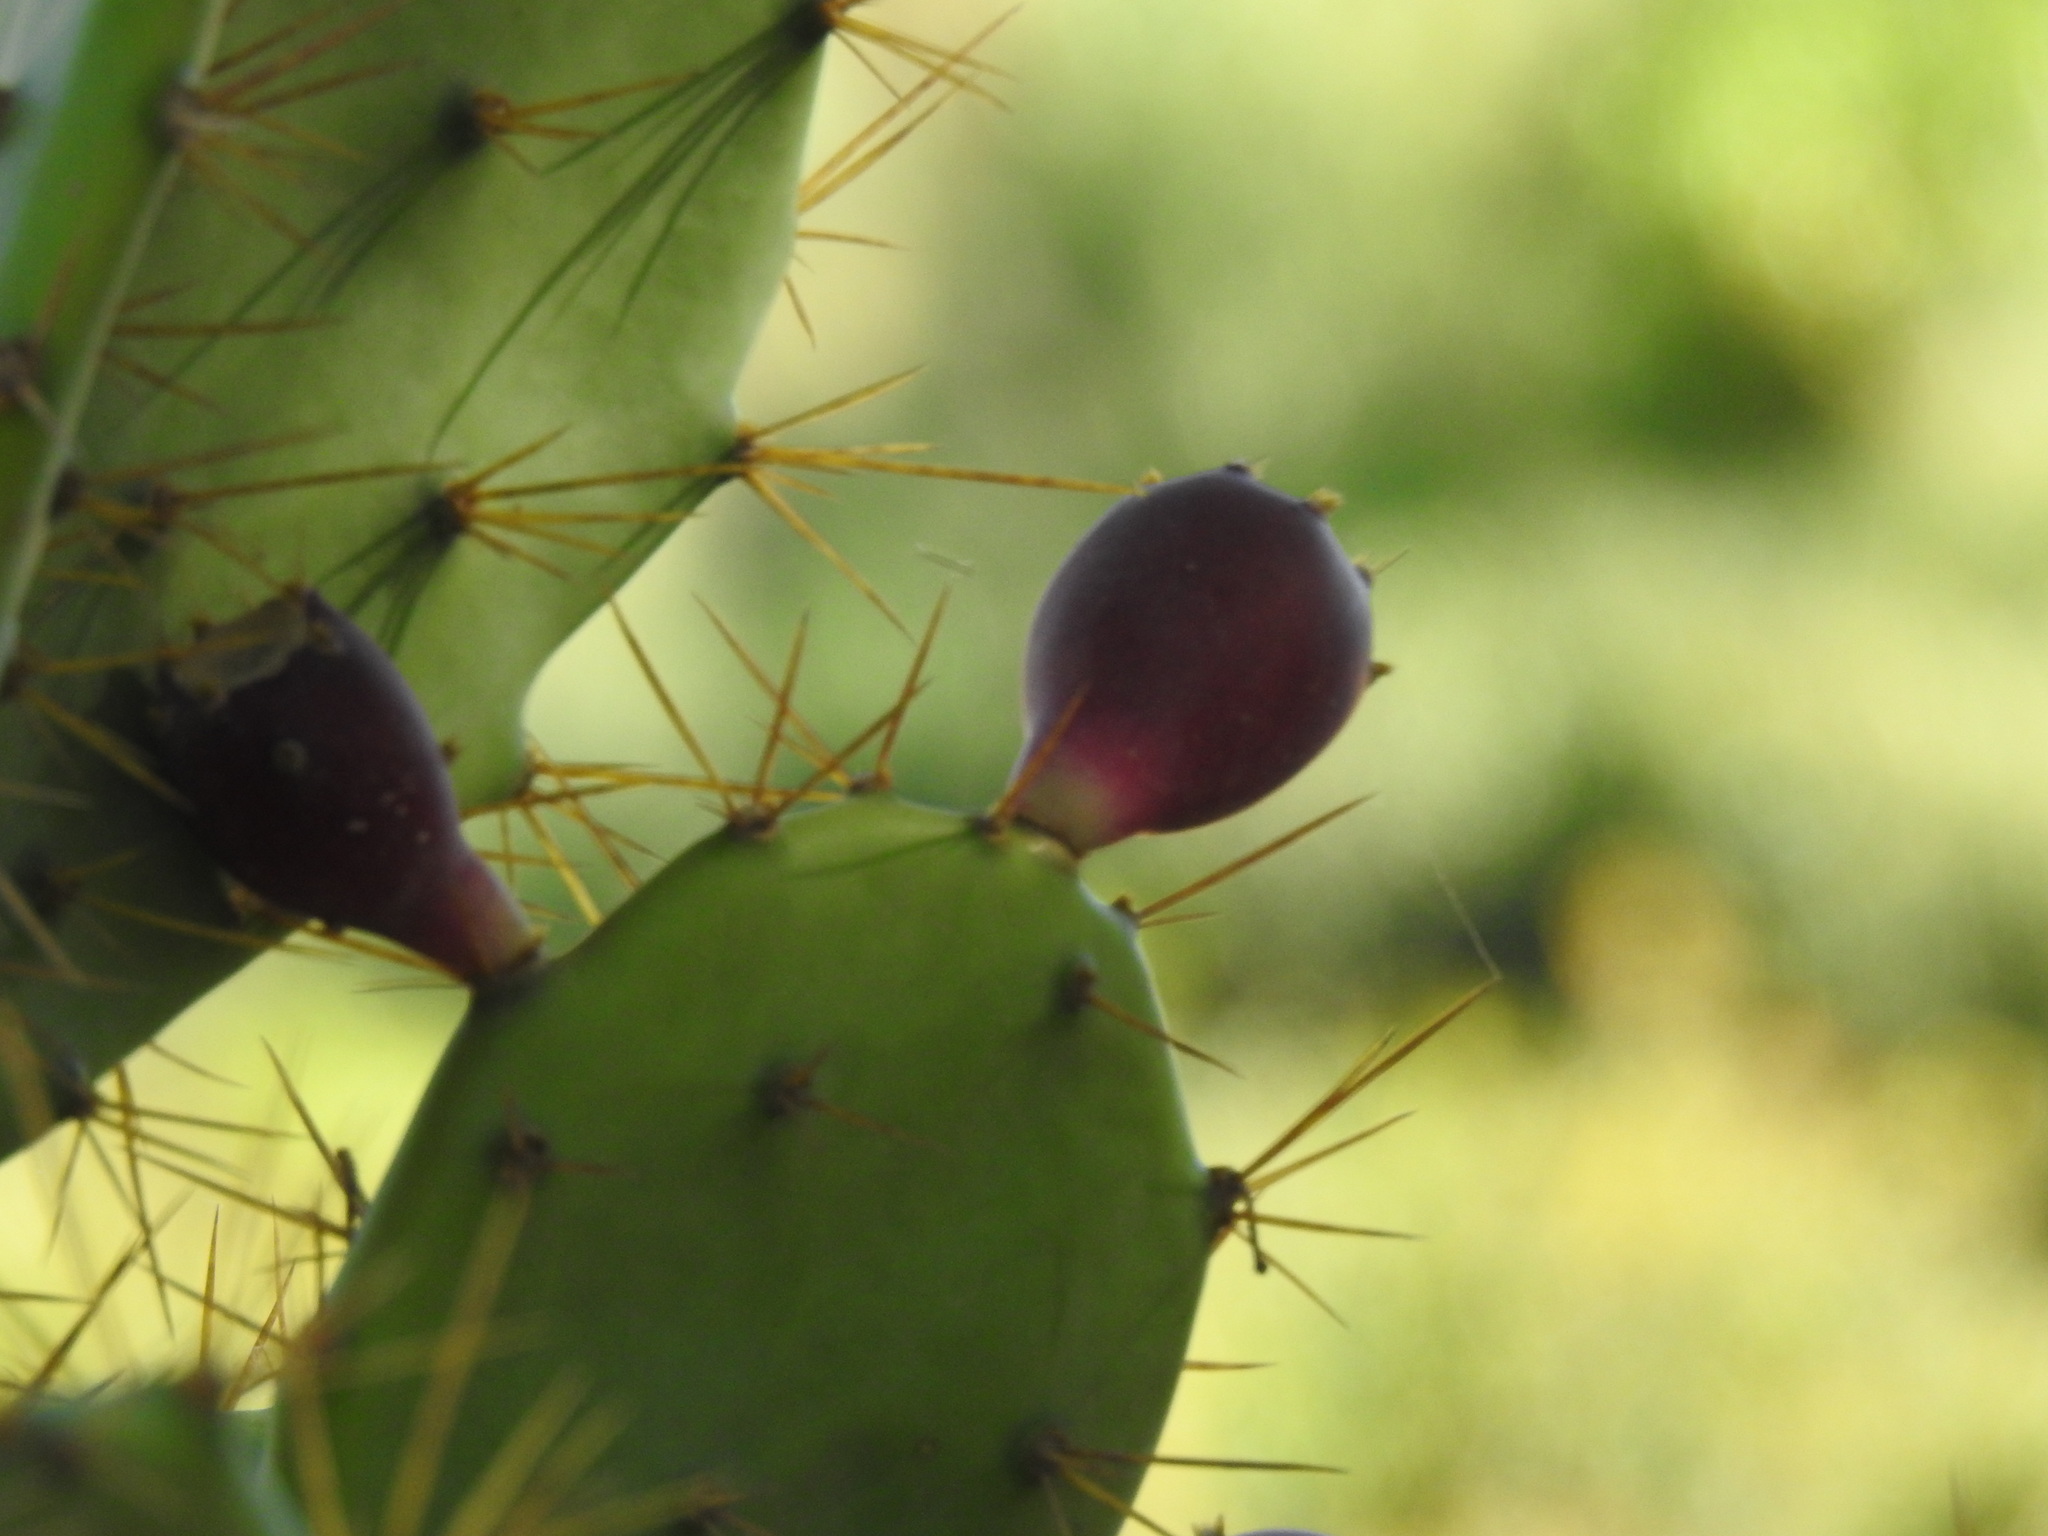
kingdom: Plantae
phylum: Tracheophyta
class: Magnoliopsida
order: Caryophyllales
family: Cactaceae
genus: Opuntia
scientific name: Opuntia stricta
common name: Erect pricklypear
